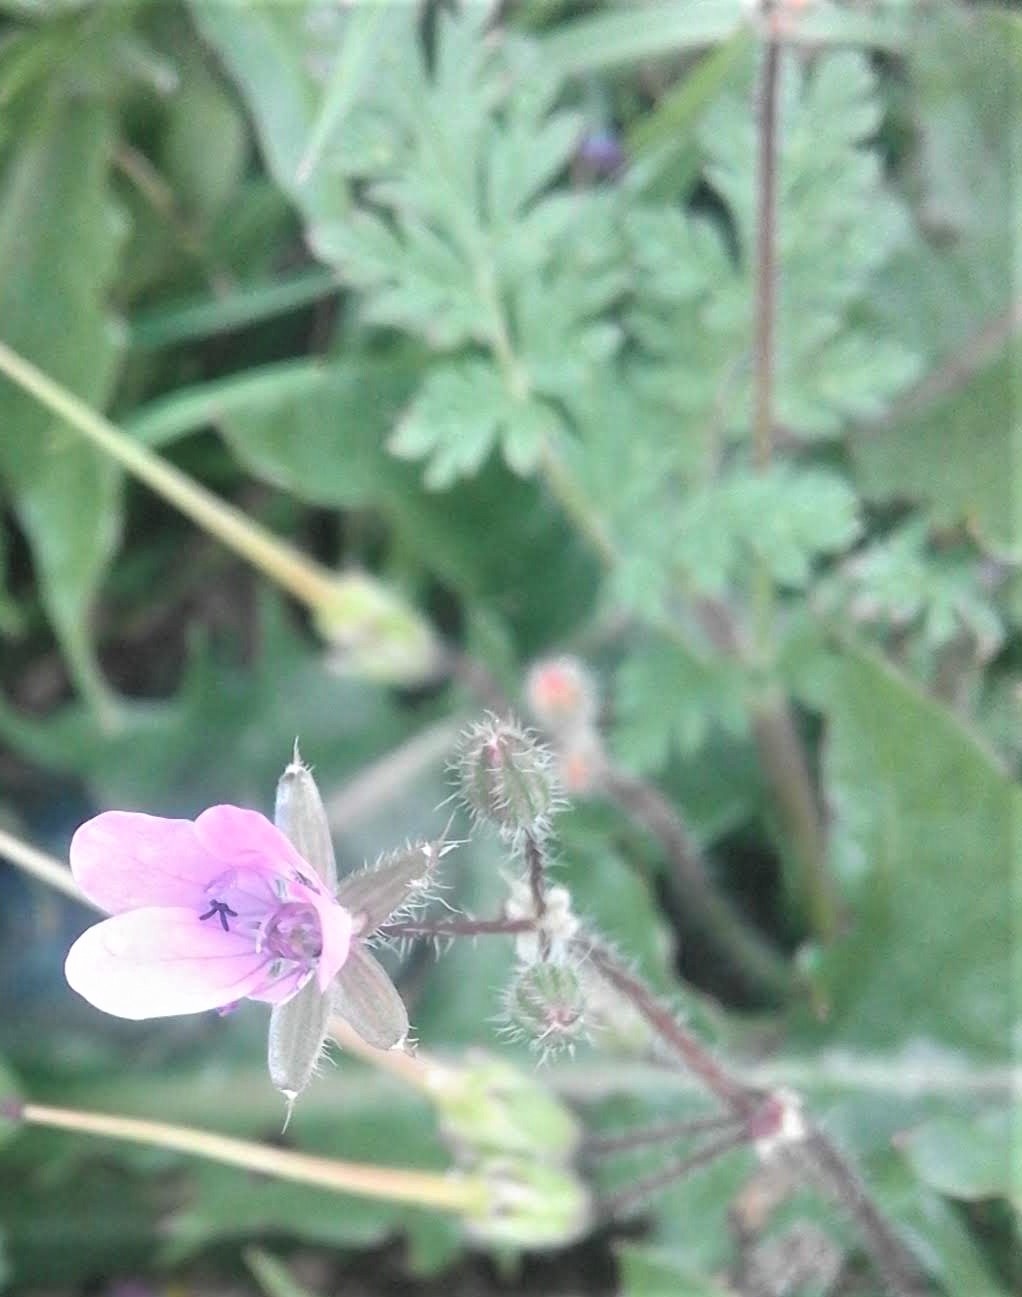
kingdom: Plantae
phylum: Tracheophyta
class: Magnoliopsida
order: Geraniales
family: Geraniaceae
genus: Erodium
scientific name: Erodium cicutarium
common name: Common stork's-bill
